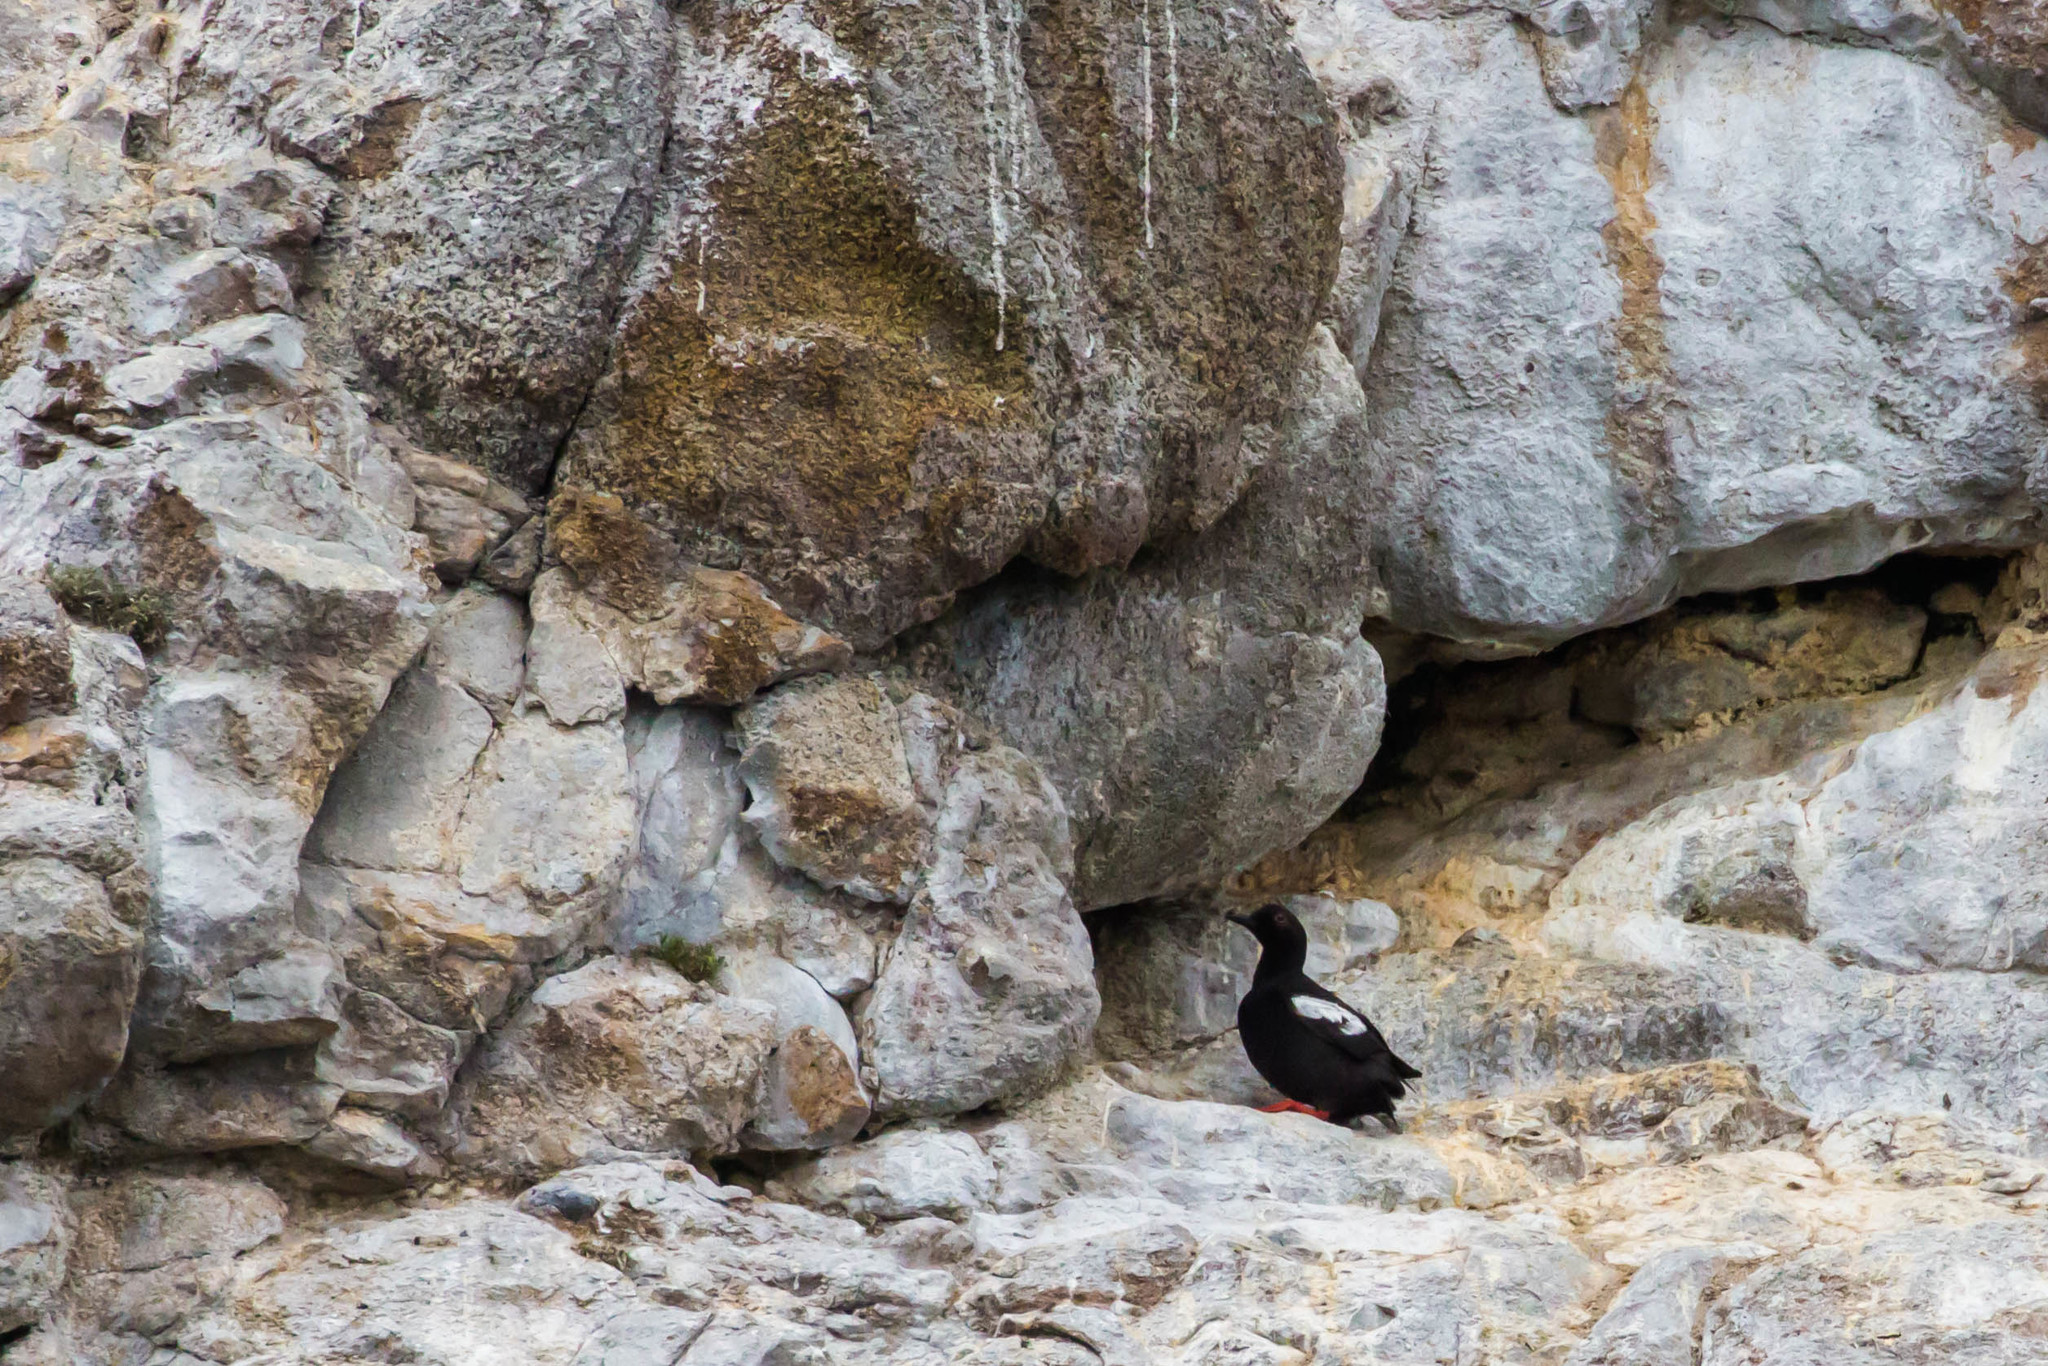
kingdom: Animalia
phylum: Chordata
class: Aves
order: Charadriiformes
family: Alcidae
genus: Cepphus
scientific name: Cepphus columba
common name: Pigeon guillemot
